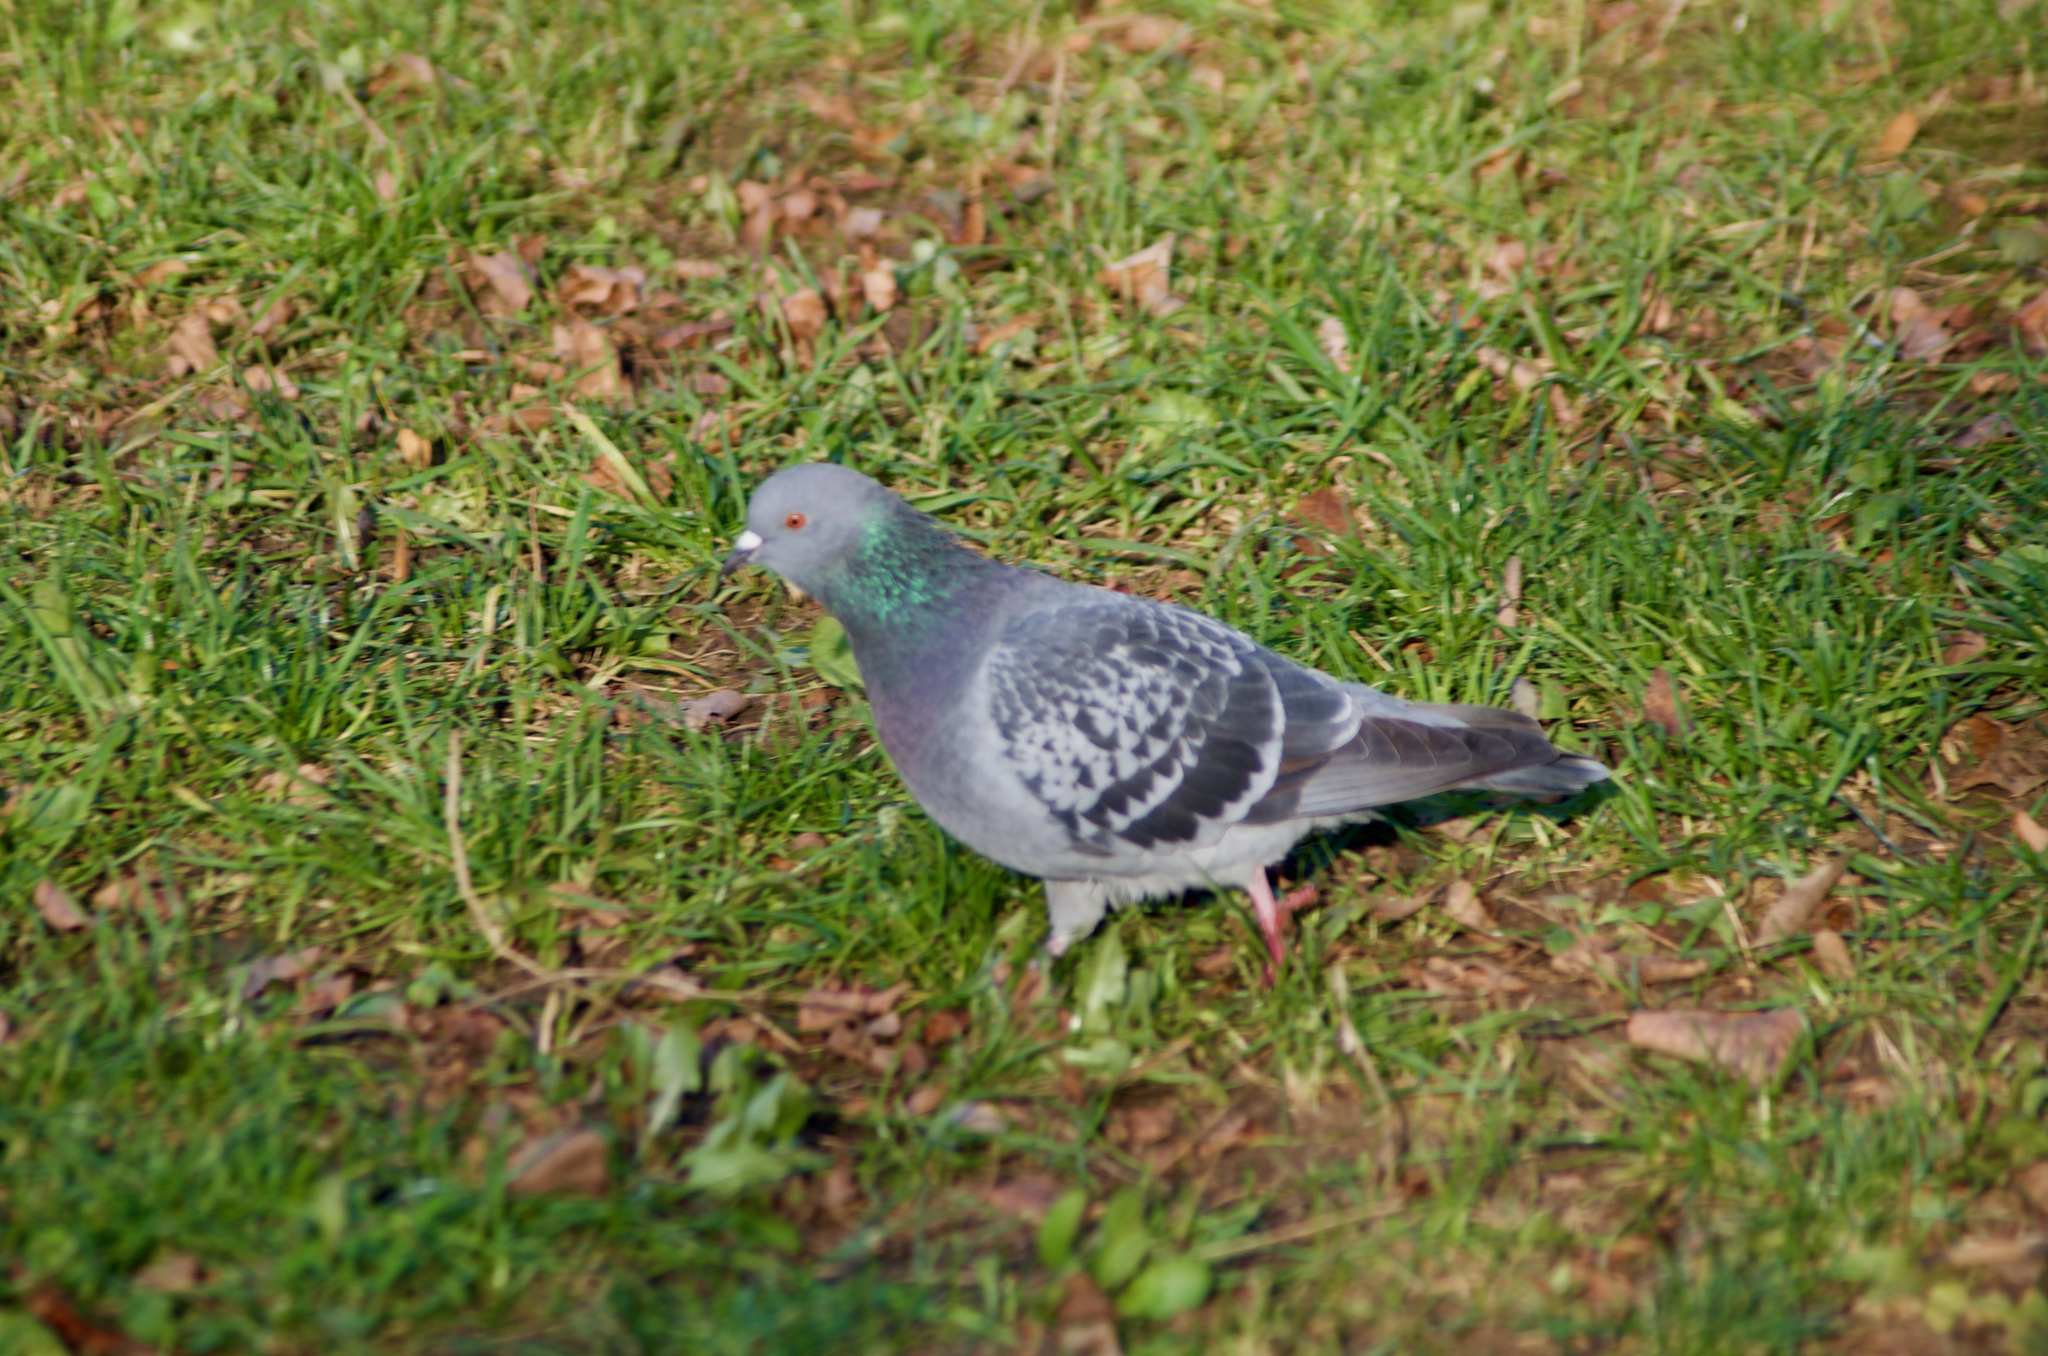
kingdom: Animalia
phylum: Chordata
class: Aves
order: Columbiformes
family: Columbidae
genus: Columba
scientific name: Columba livia
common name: Rock pigeon
